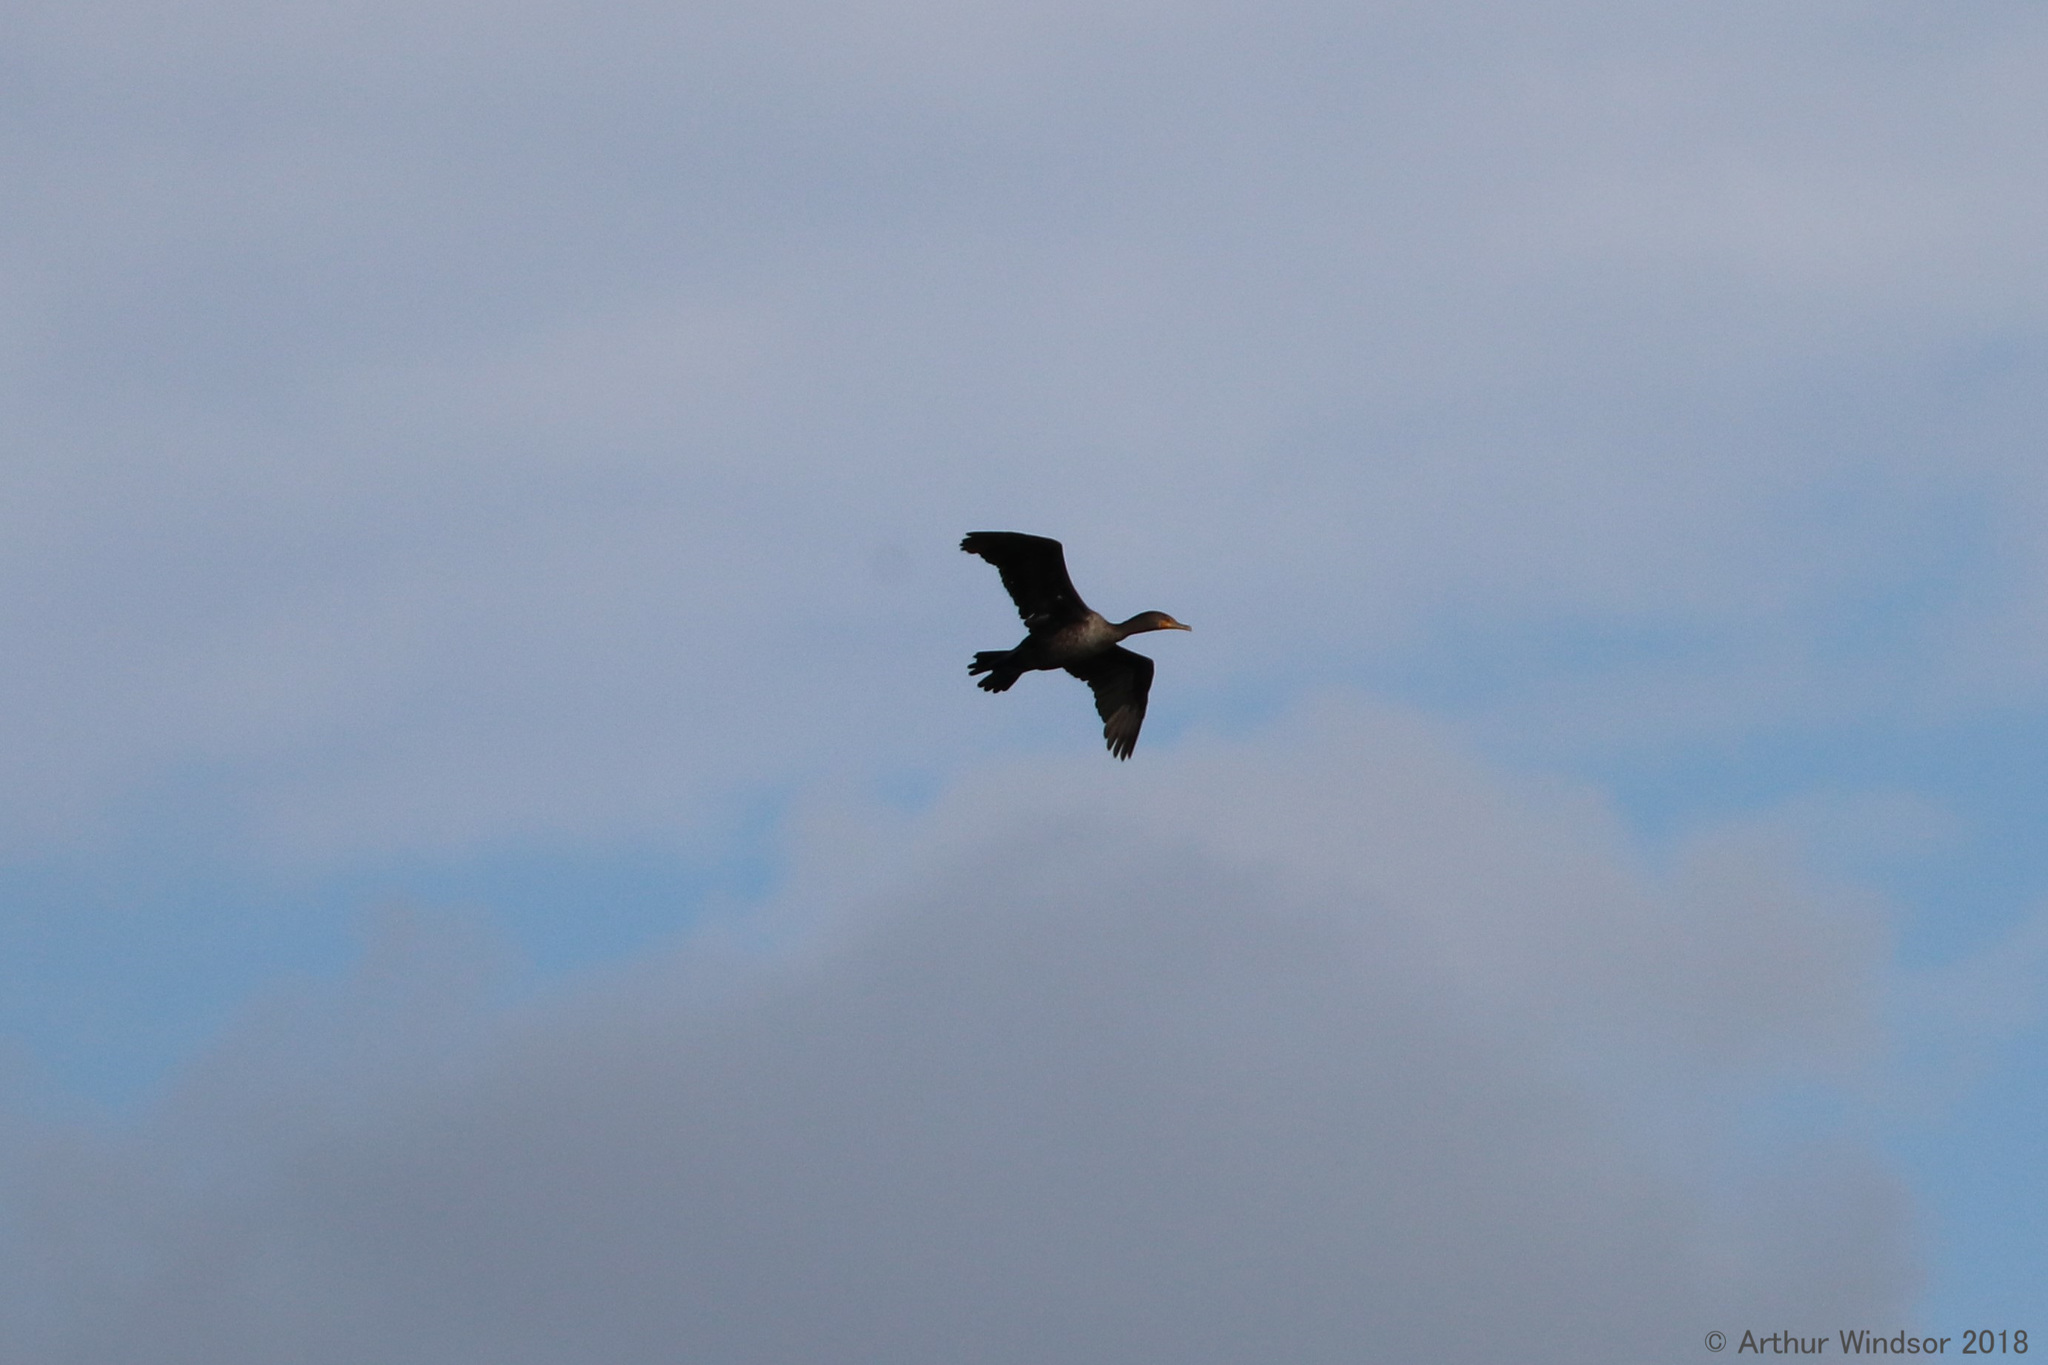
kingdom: Animalia
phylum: Chordata
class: Aves
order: Suliformes
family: Phalacrocoracidae
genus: Phalacrocorax
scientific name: Phalacrocorax auritus
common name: Double-crested cormorant
